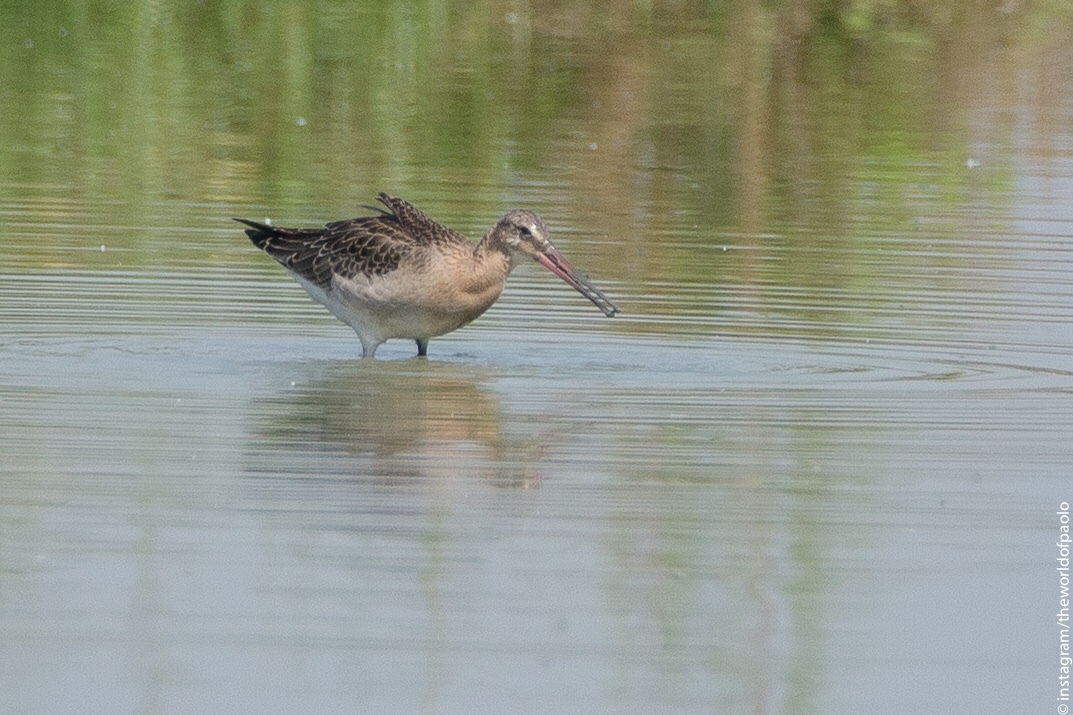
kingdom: Animalia
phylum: Chordata
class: Aves
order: Charadriiformes
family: Scolopacidae
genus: Limosa
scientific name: Limosa limosa
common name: Black-tailed godwit
